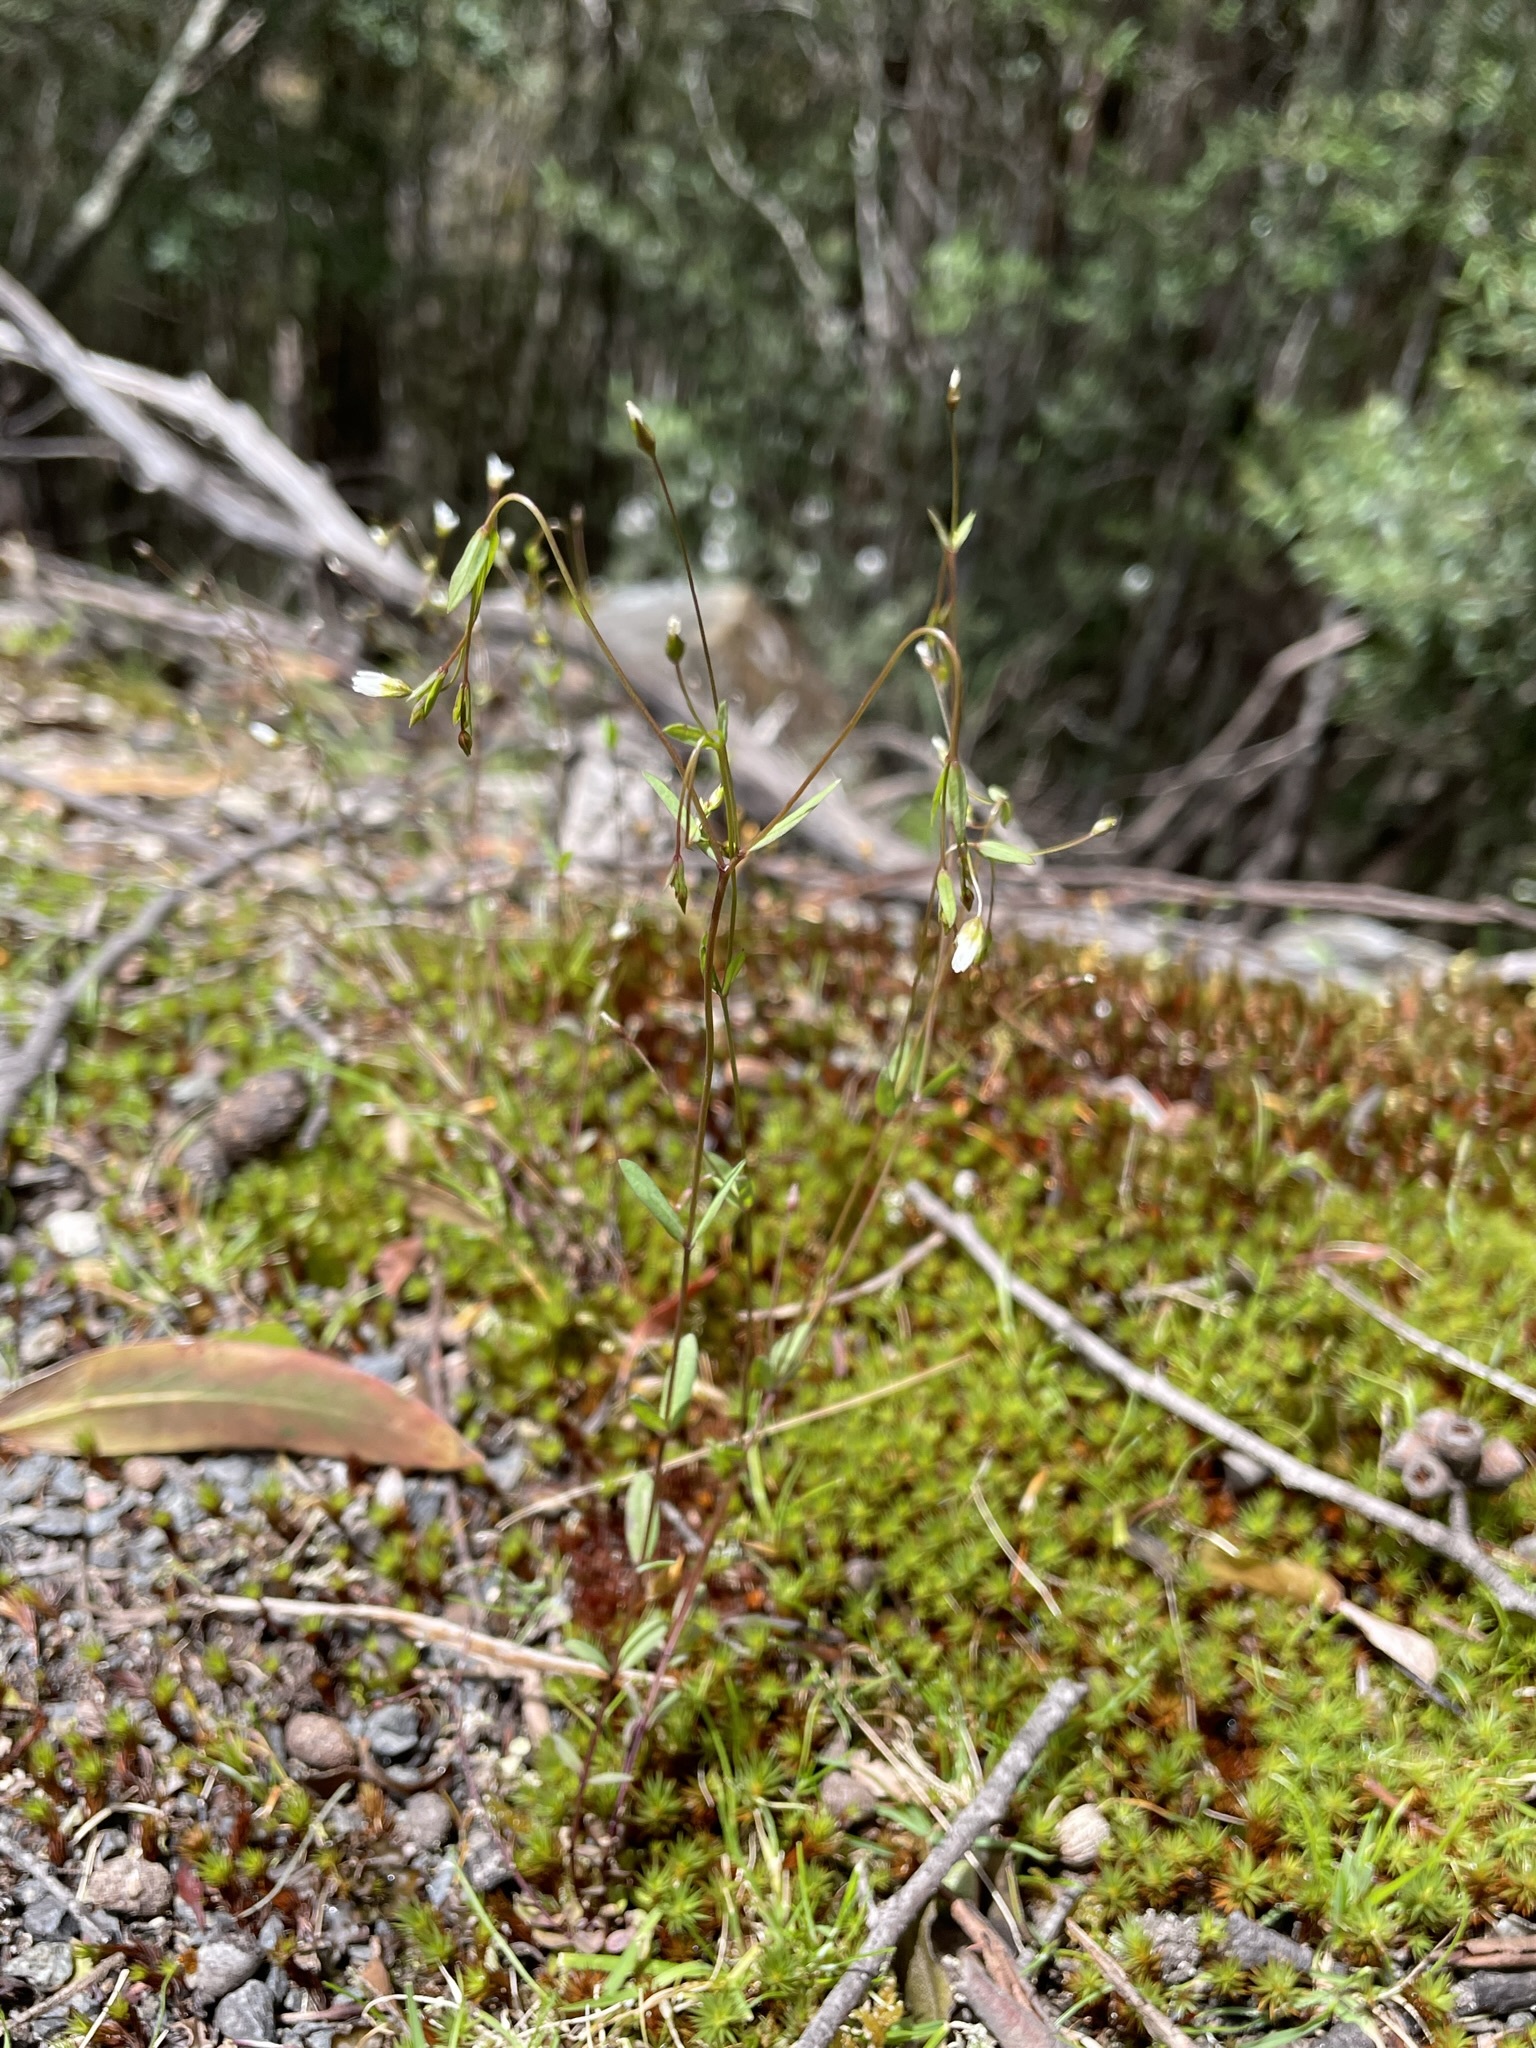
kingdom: Plantae
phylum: Tracheophyta
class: Magnoliopsida
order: Malpighiales
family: Linaceae
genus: Linum
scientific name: Linum catharticum
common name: Fairy flax
